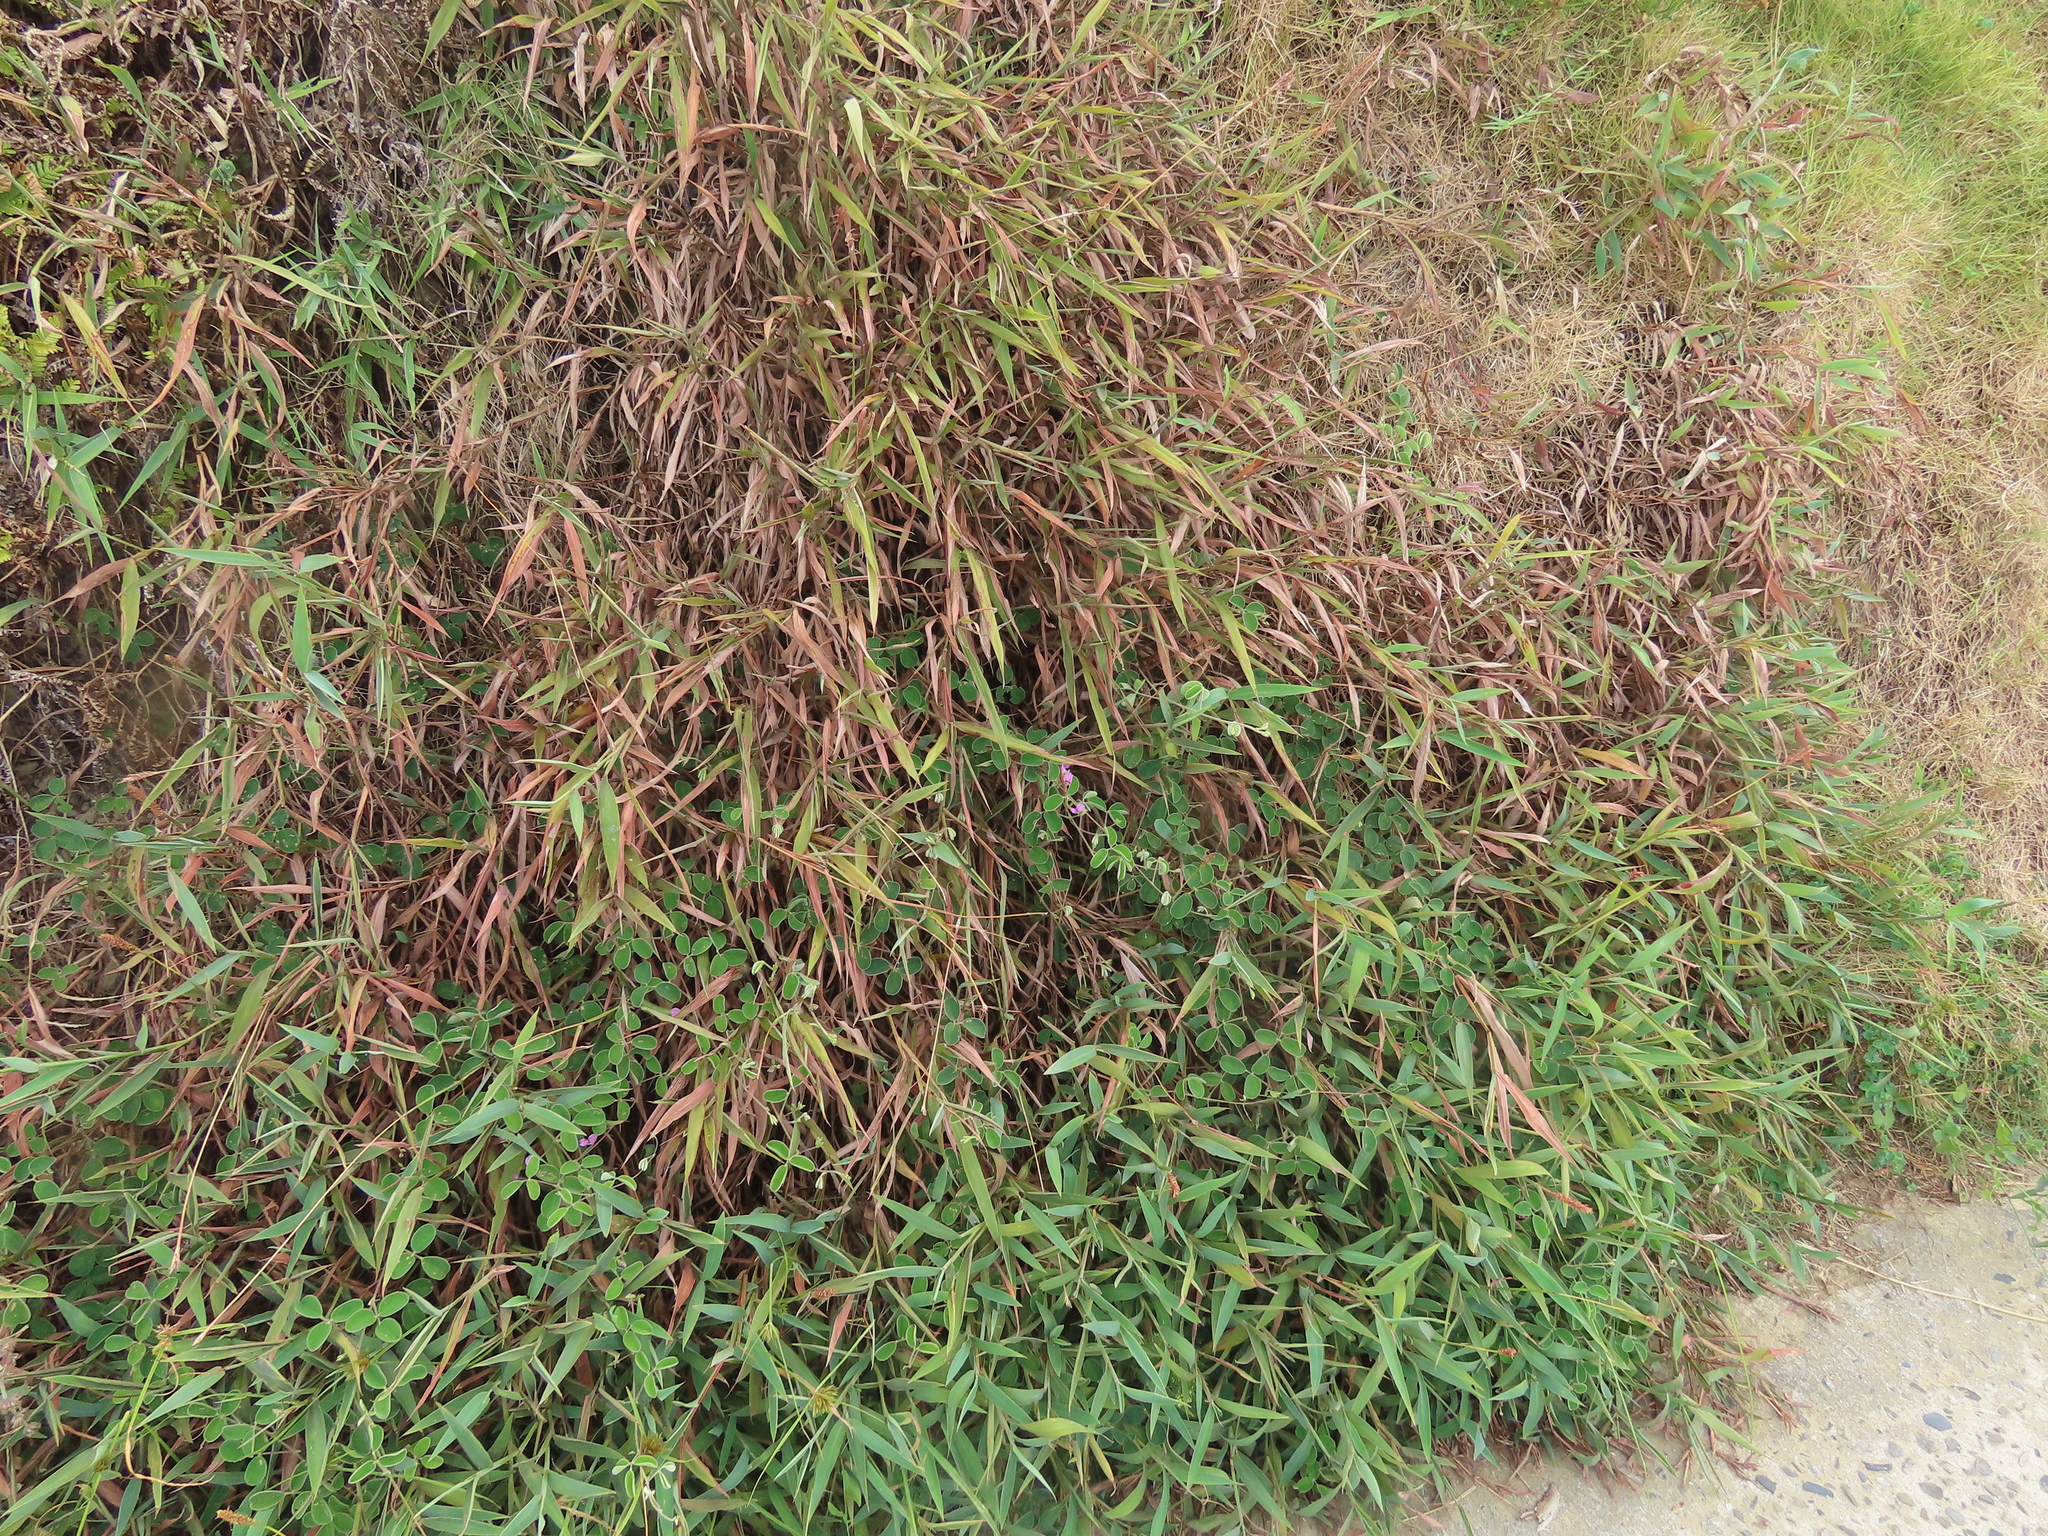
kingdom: Plantae
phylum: Tracheophyta
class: Magnoliopsida
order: Fabales
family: Fabaceae
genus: Galactia
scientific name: Galactia tashiroi
